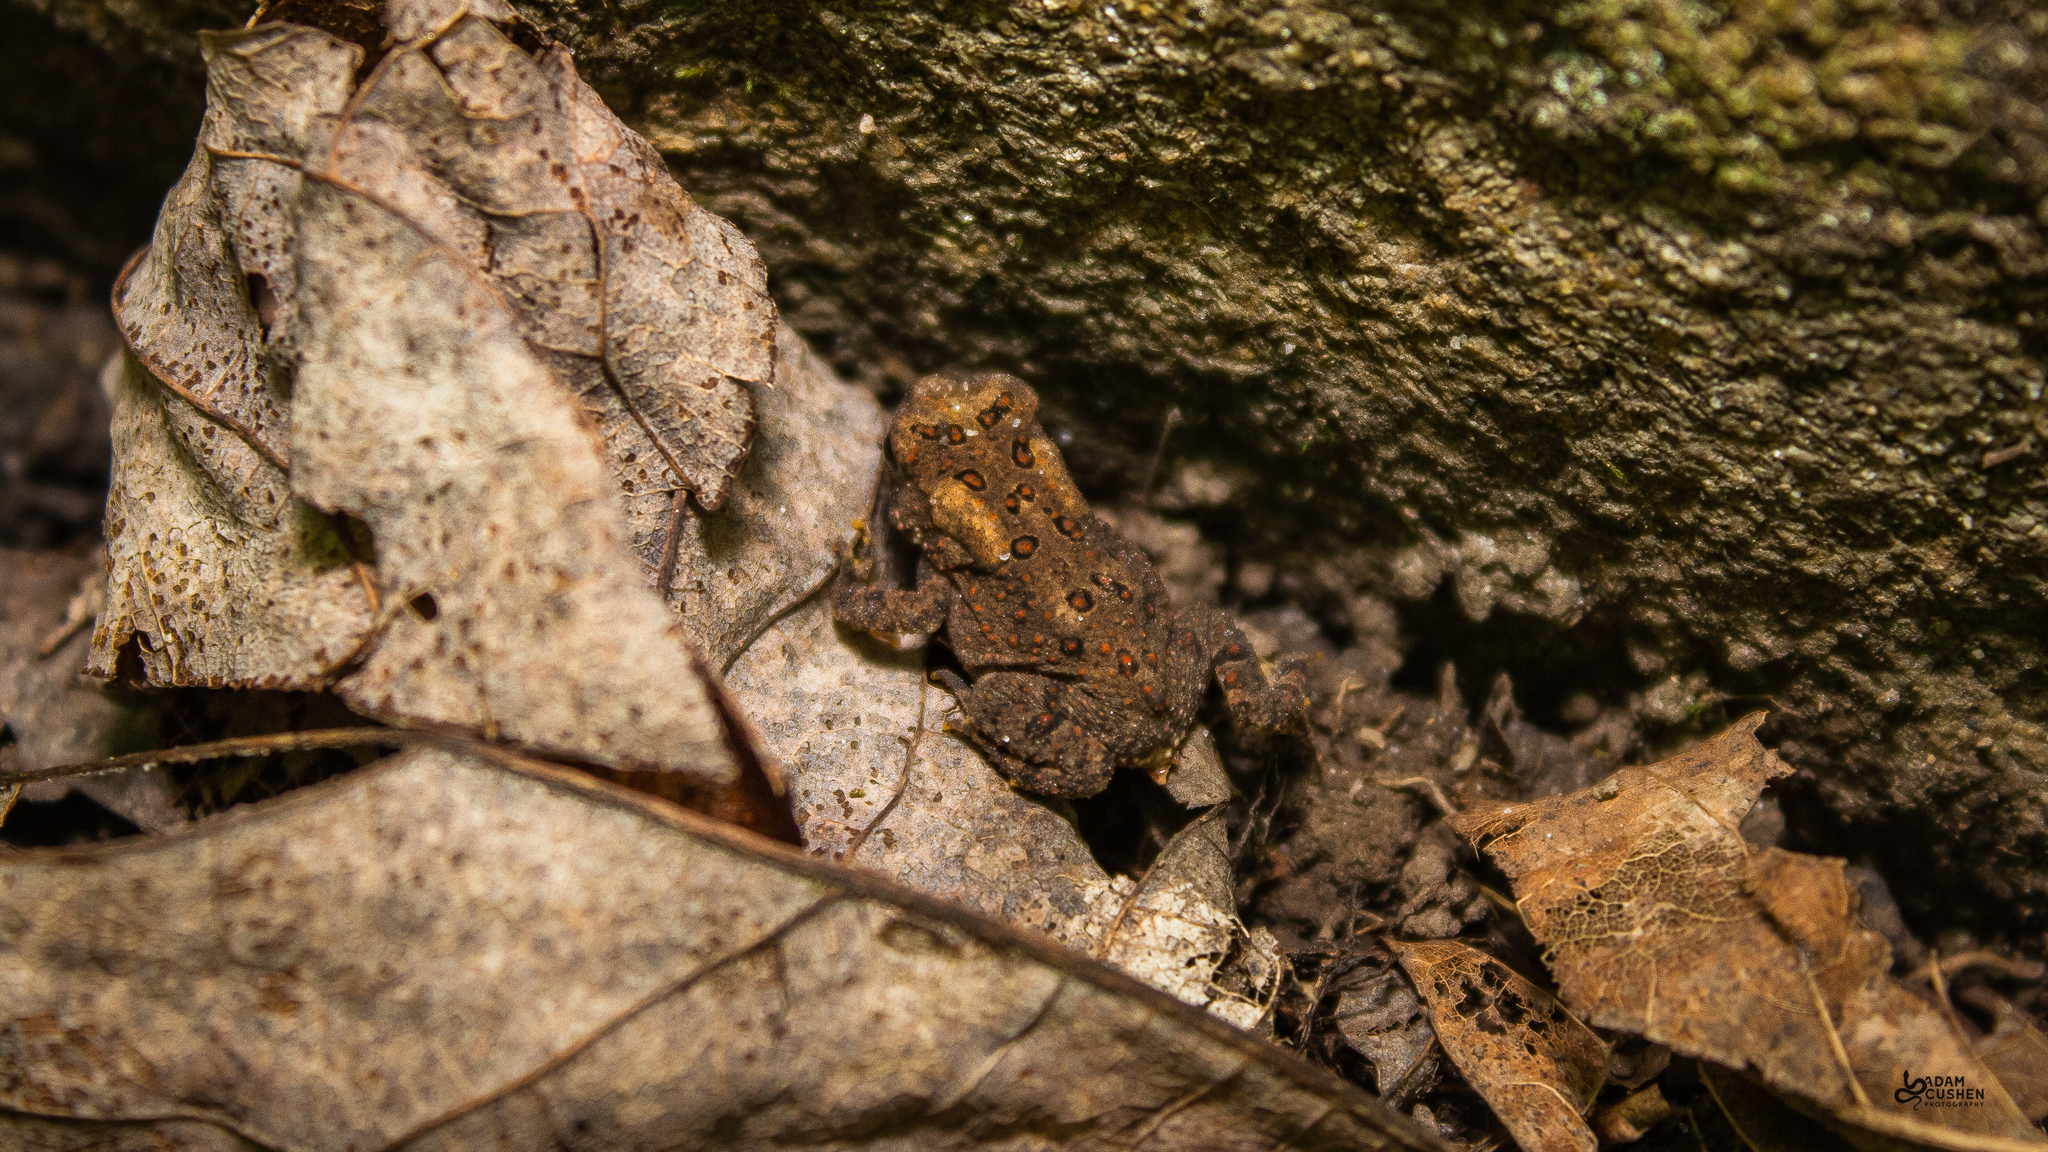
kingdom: Animalia
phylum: Chordata
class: Amphibia
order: Anura
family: Bufonidae
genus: Anaxyrus
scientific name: Anaxyrus americanus
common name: American toad
